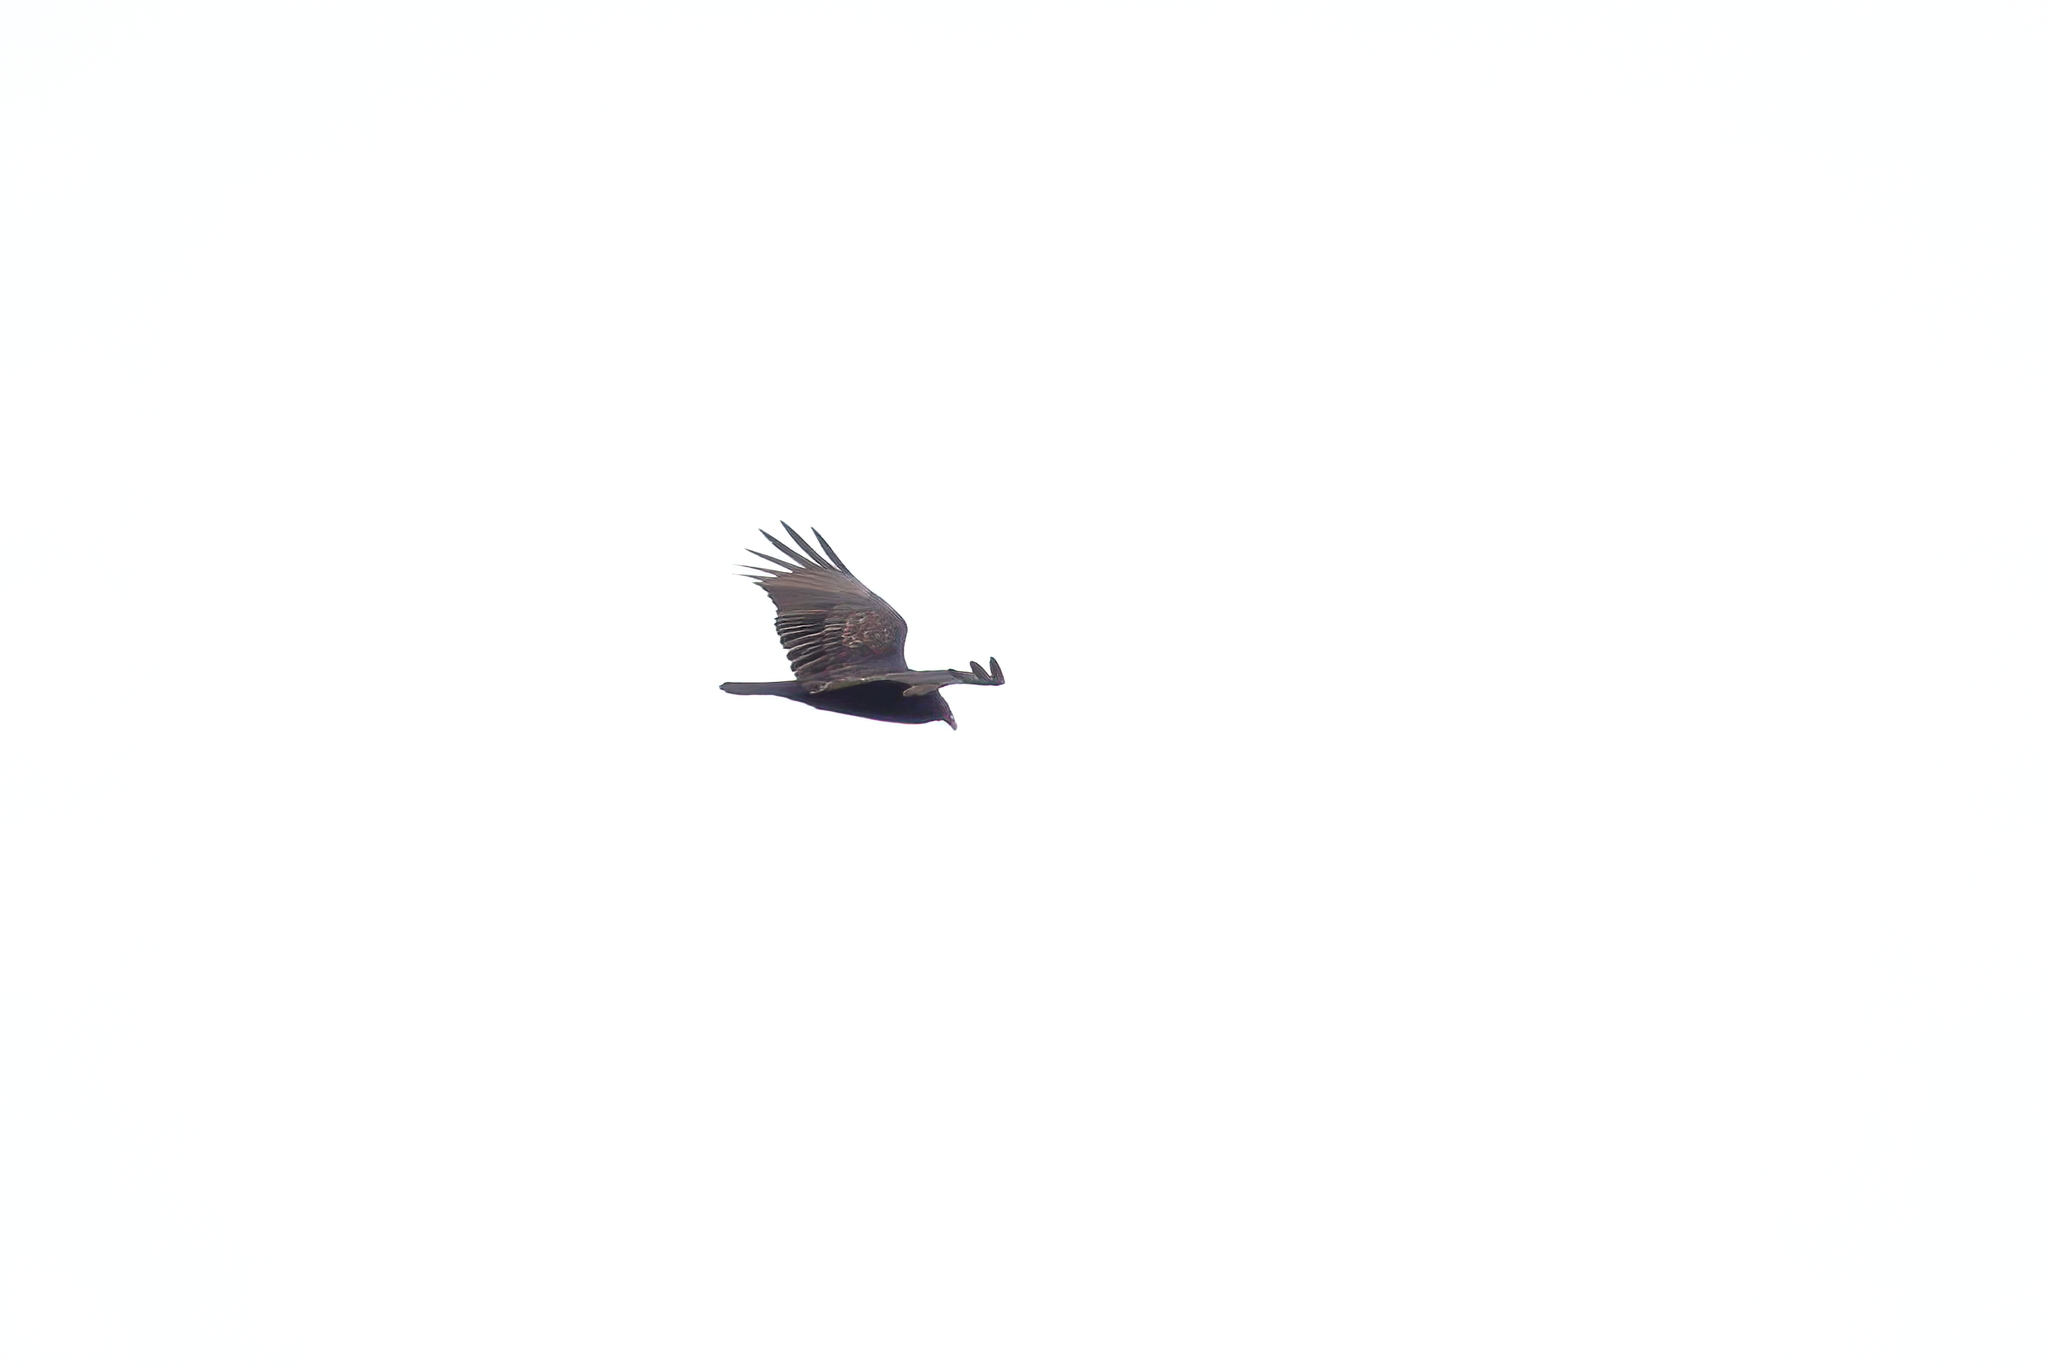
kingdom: Animalia
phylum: Chordata
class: Aves
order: Accipitriformes
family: Cathartidae
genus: Cathartes
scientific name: Cathartes aura
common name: Turkey vulture
